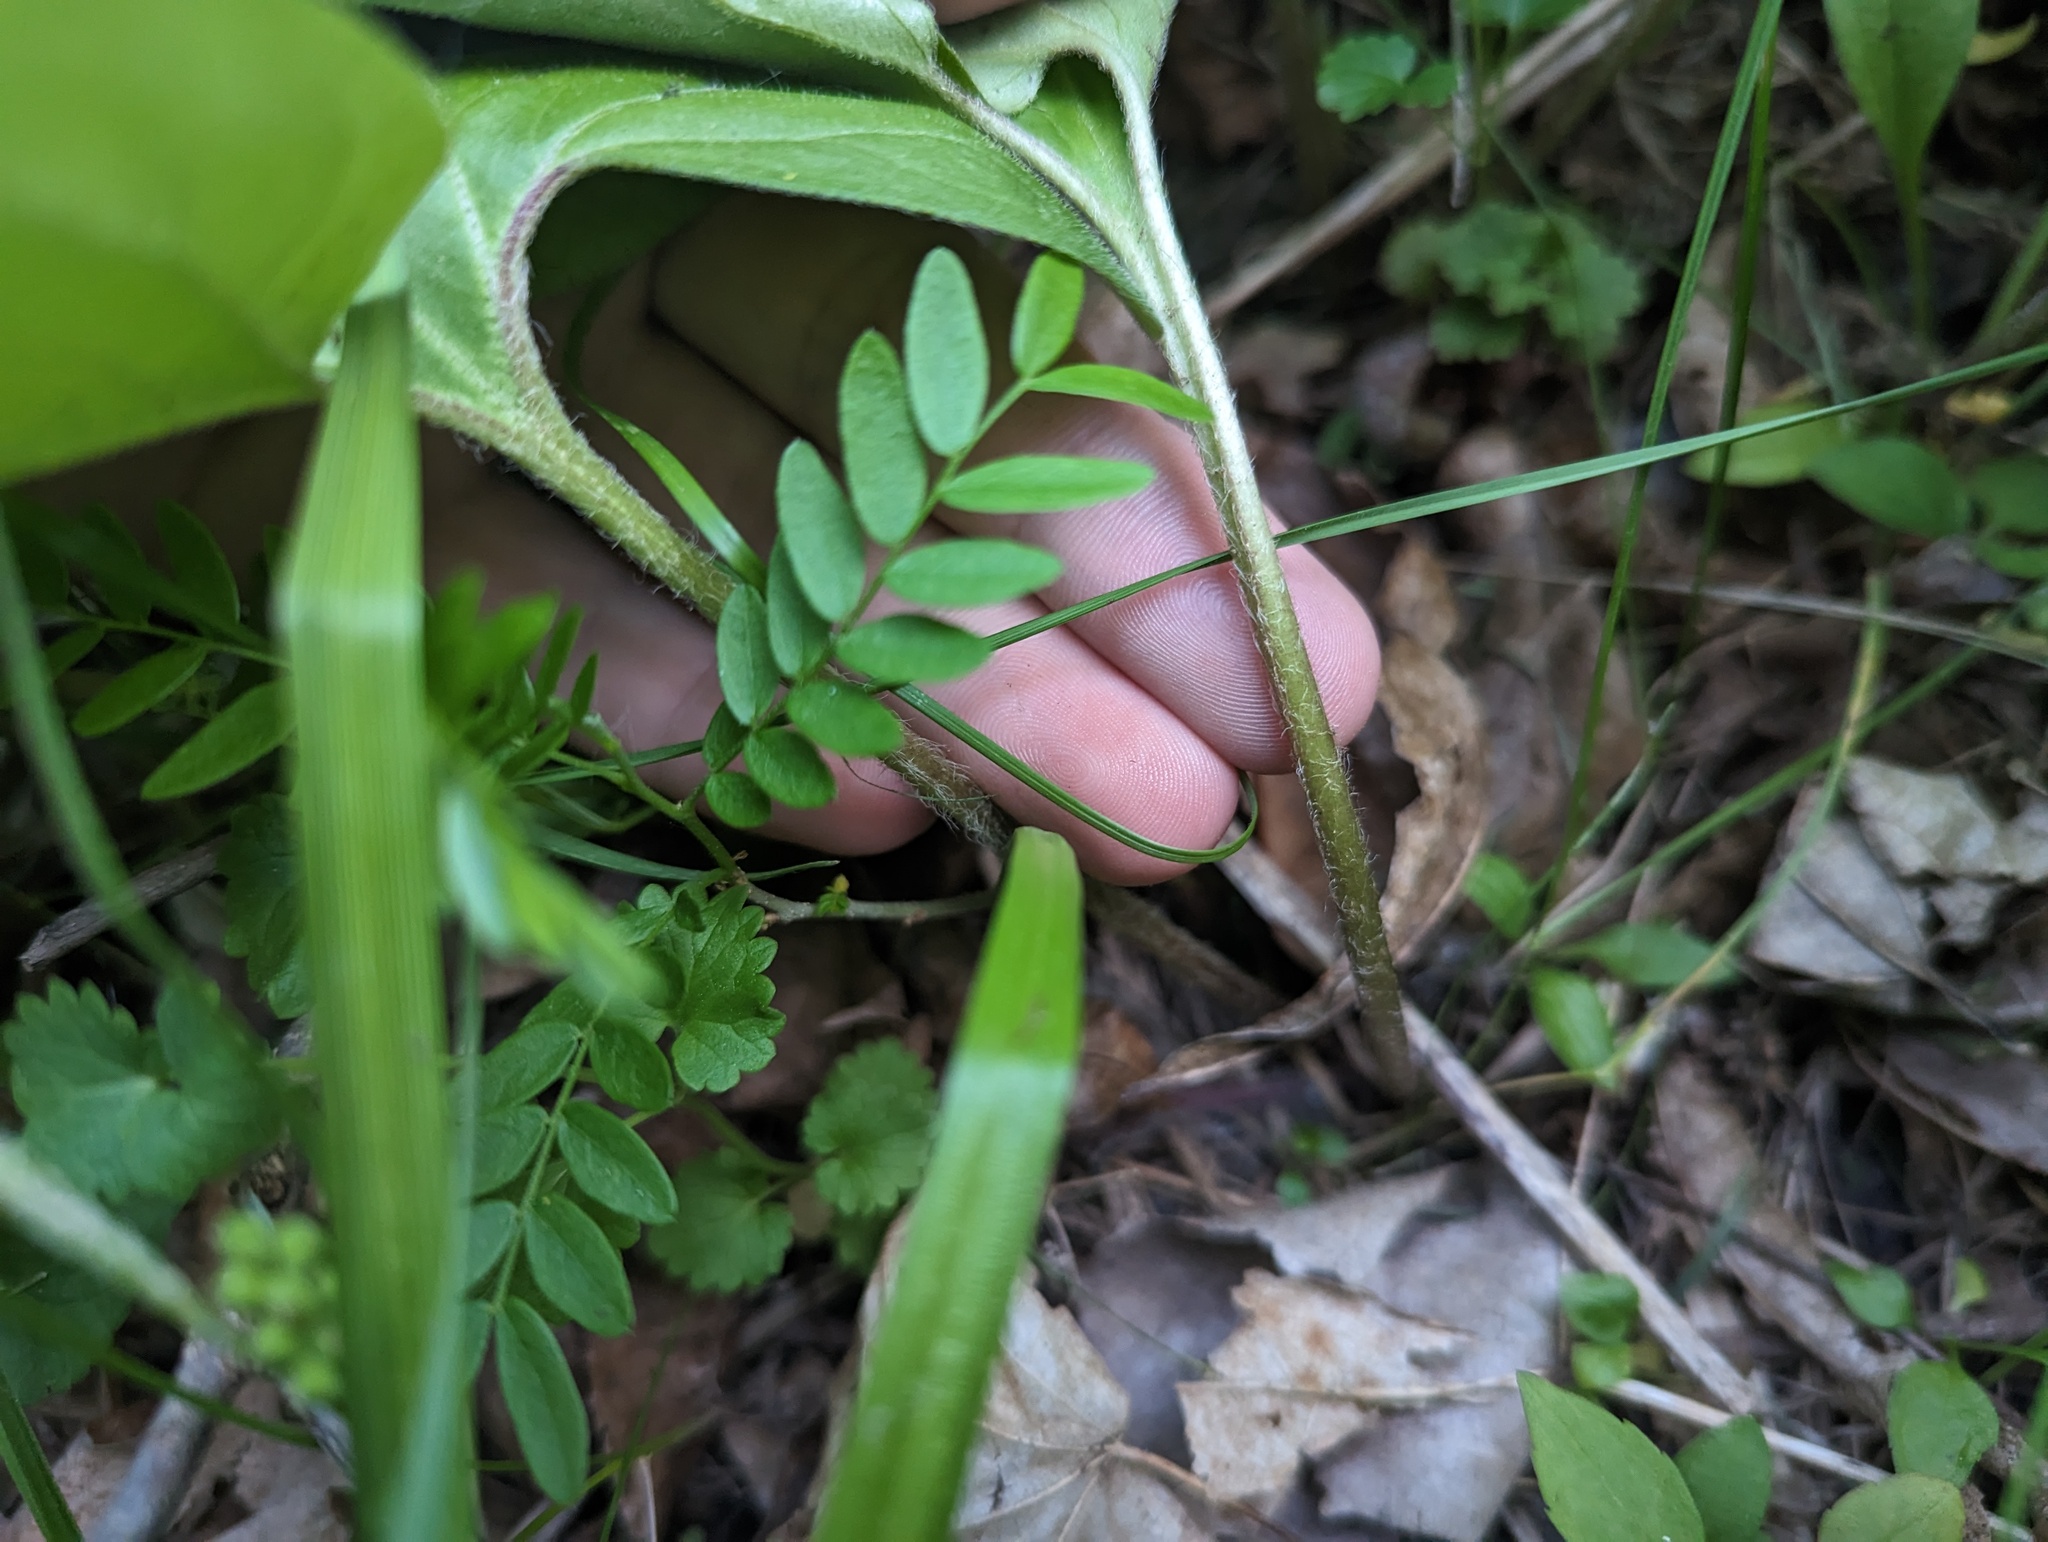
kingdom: Plantae
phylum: Tracheophyta
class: Magnoliopsida
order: Piperales
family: Aristolochiaceae
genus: Asarum
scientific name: Asarum canadense
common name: Wild ginger
